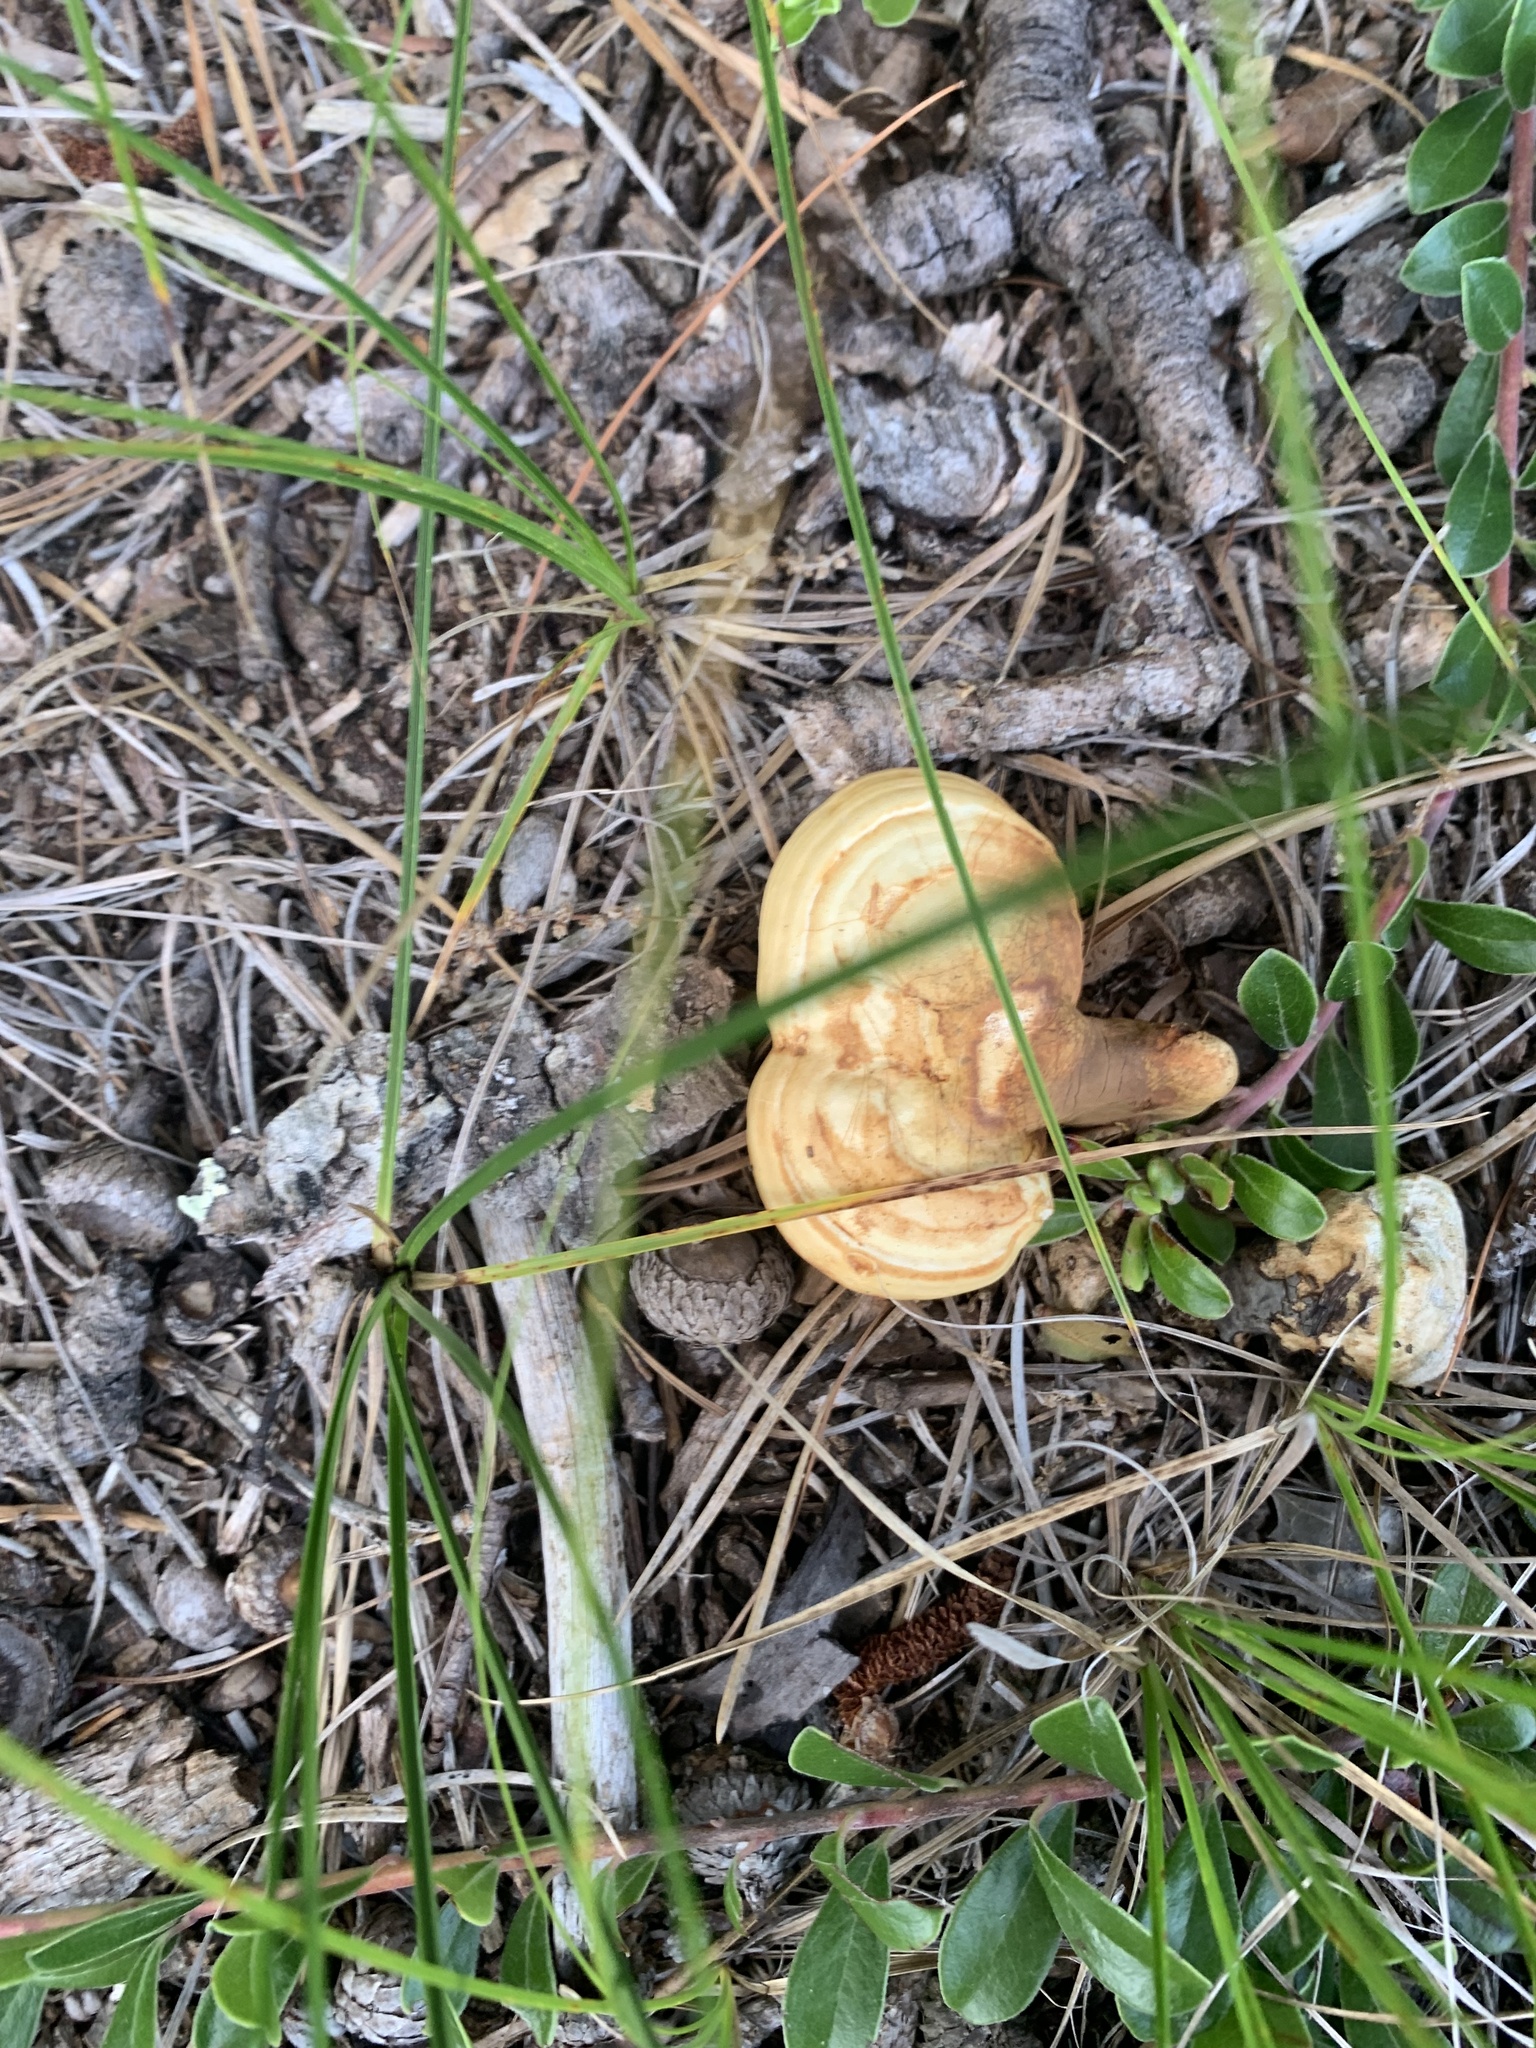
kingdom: Fungi
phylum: Basidiomycota
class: Agaricomycetes
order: Polyporales
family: Polyporaceae
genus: Ganoderma
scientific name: Ganoderma curtisii
